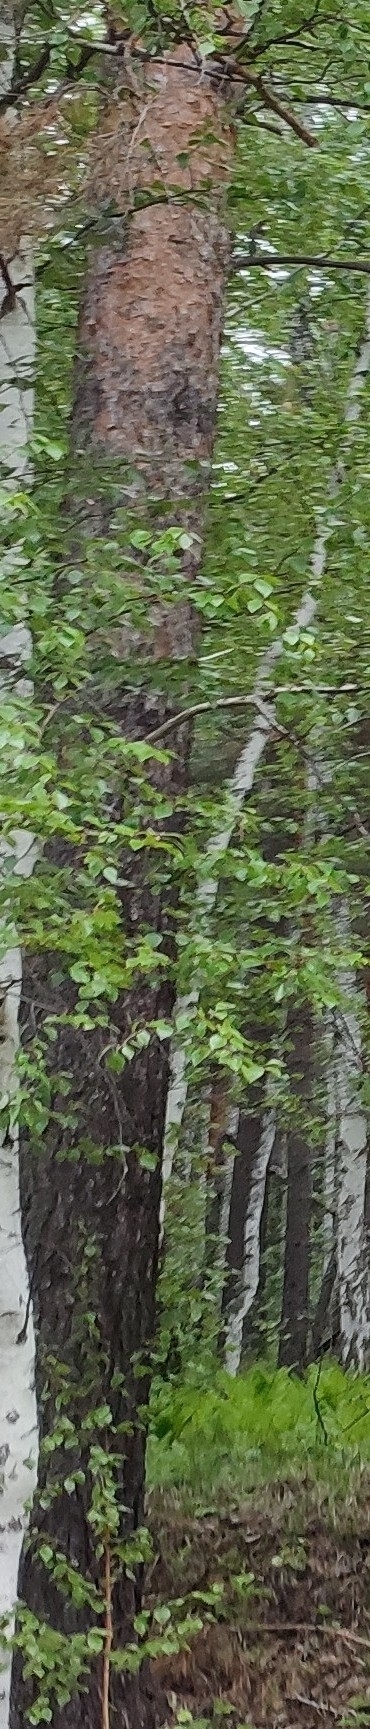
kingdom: Plantae
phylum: Tracheophyta
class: Pinopsida
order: Pinales
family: Pinaceae
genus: Pinus
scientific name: Pinus sylvestris
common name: Scots pine
